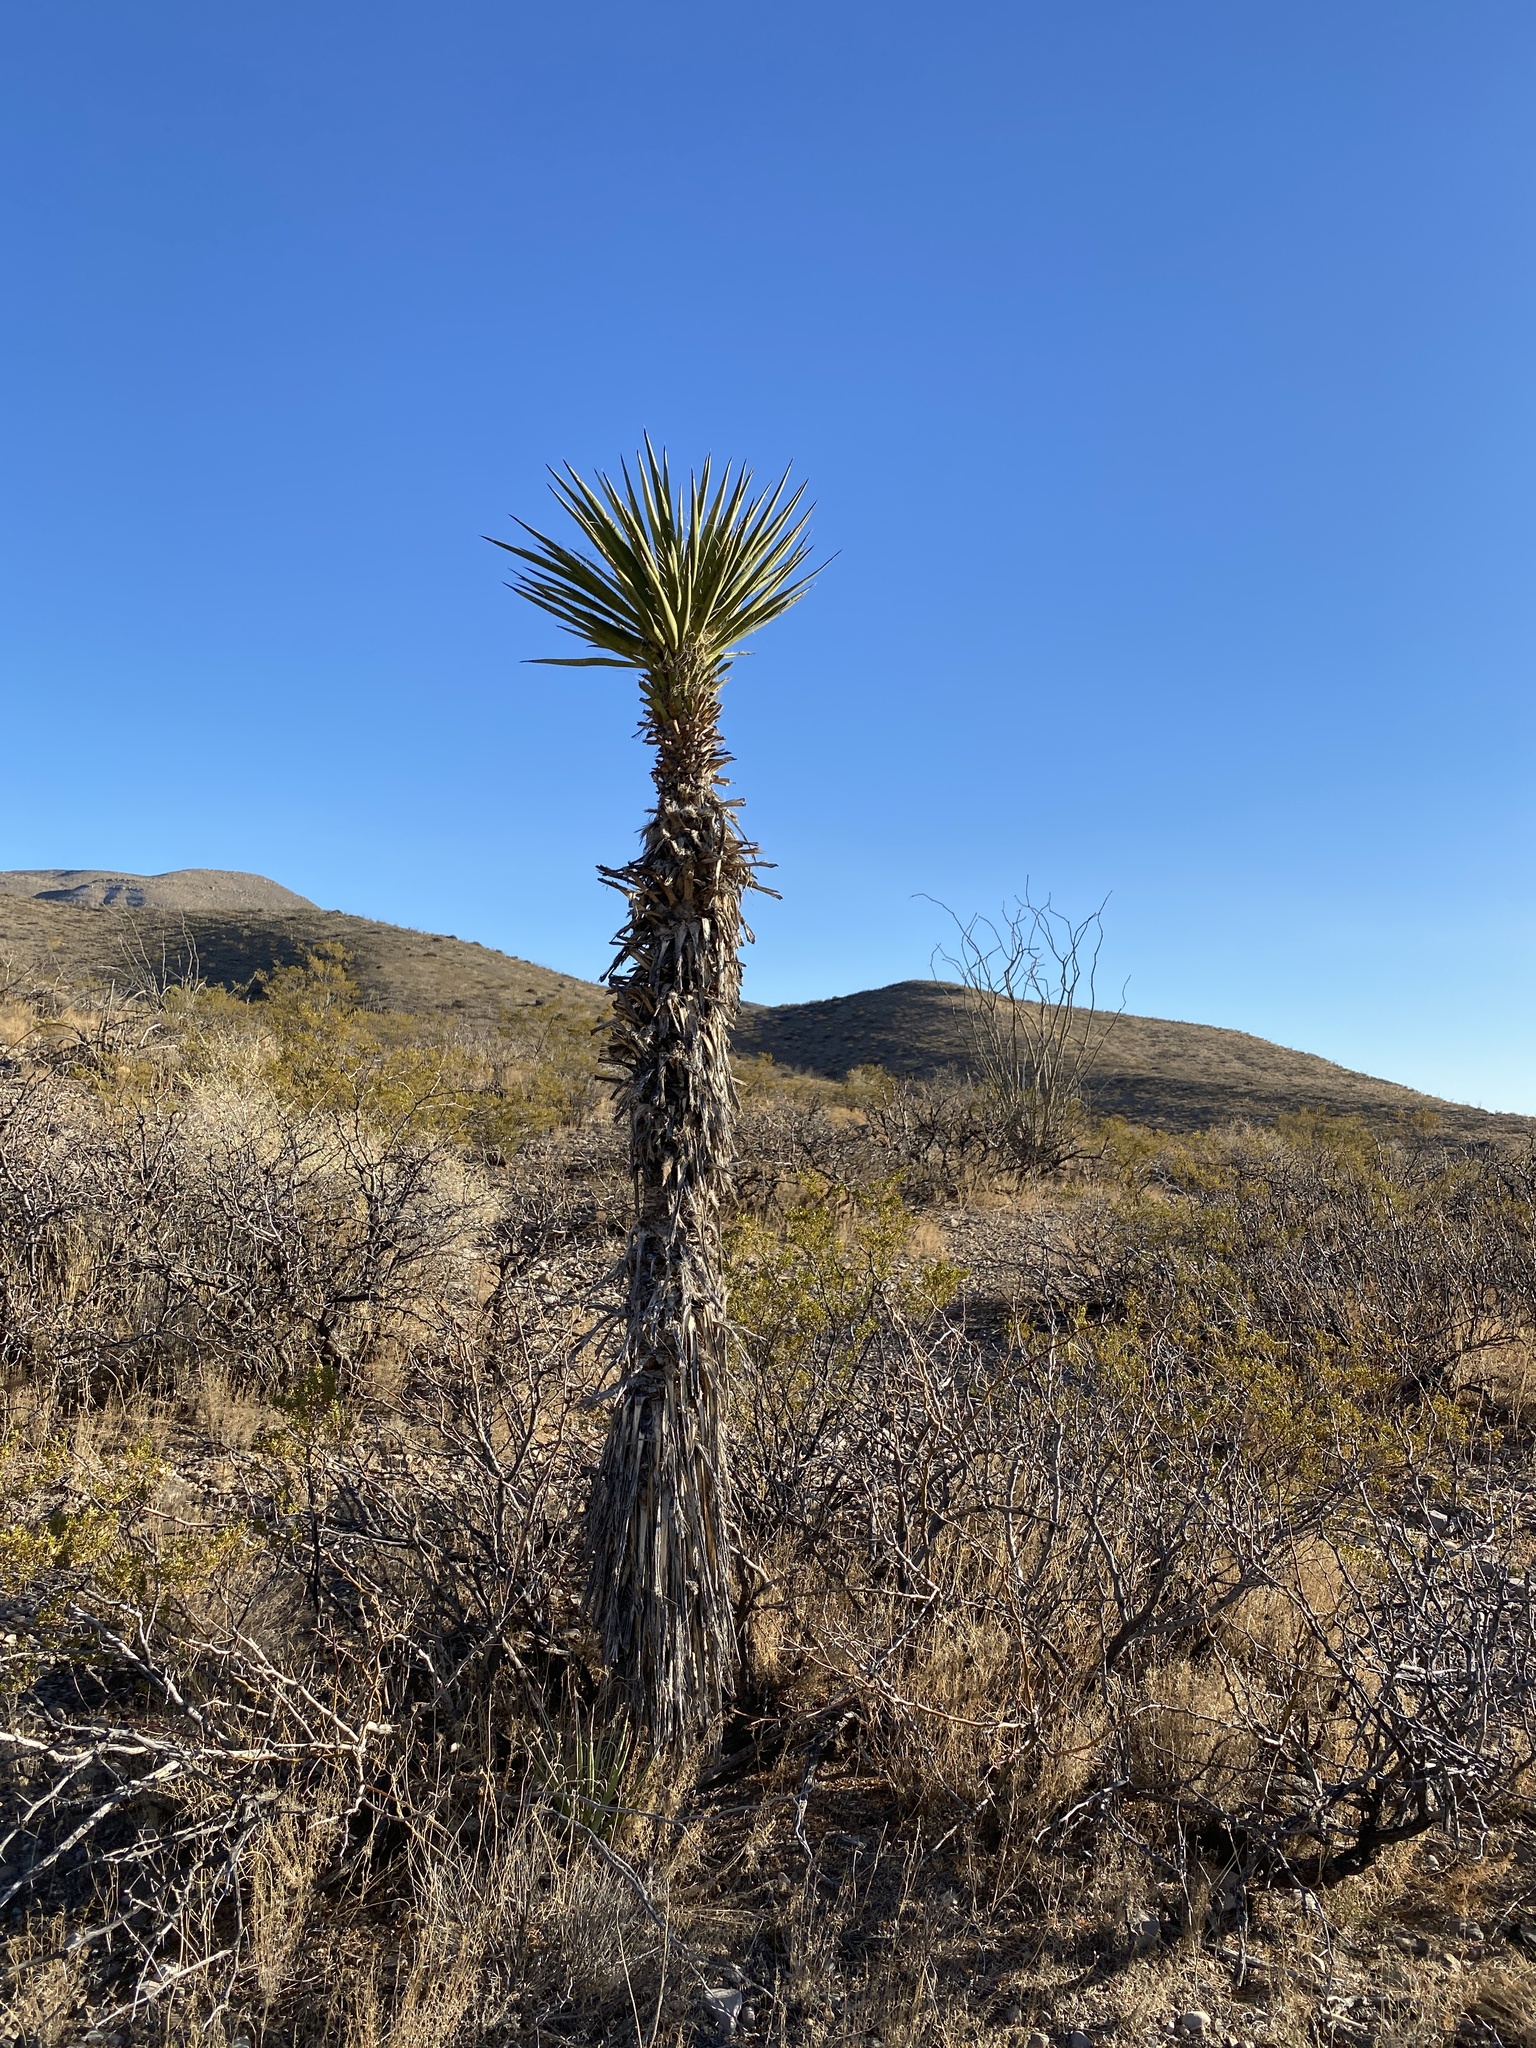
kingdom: Plantae
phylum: Tracheophyta
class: Liliopsida
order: Asparagales
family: Asparagaceae
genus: Yucca
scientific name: Yucca treculiana
